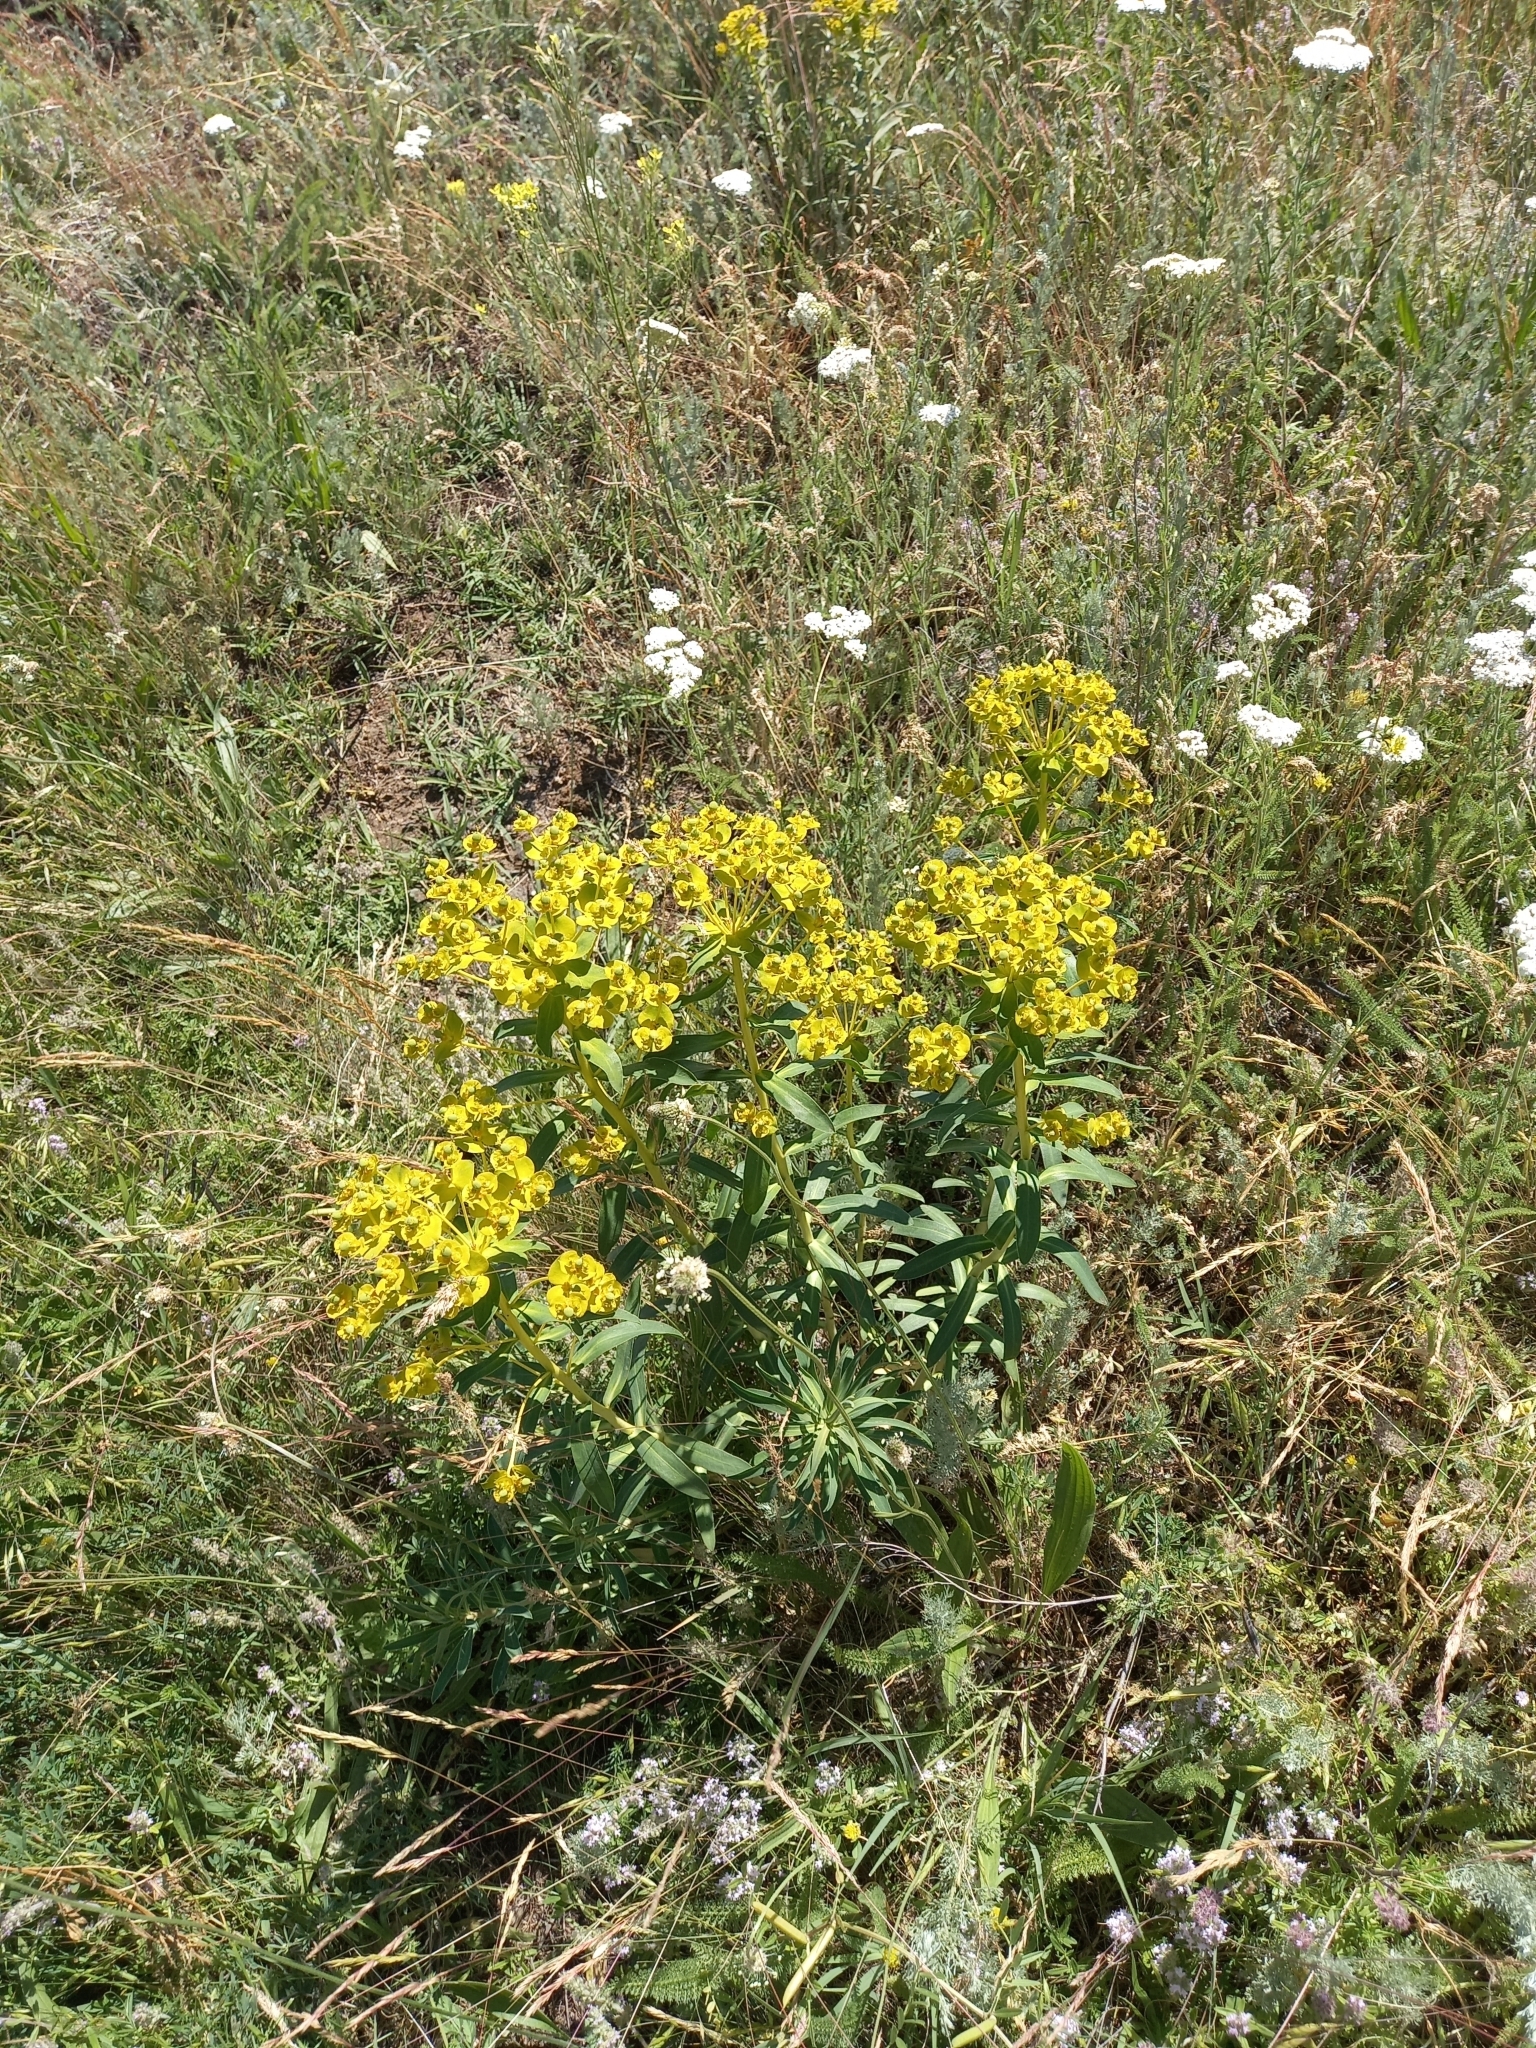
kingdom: Plantae
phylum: Tracheophyta
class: Magnoliopsida
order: Malpighiales
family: Euphorbiaceae
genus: Euphorbia
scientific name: Euphorbia stepposa
